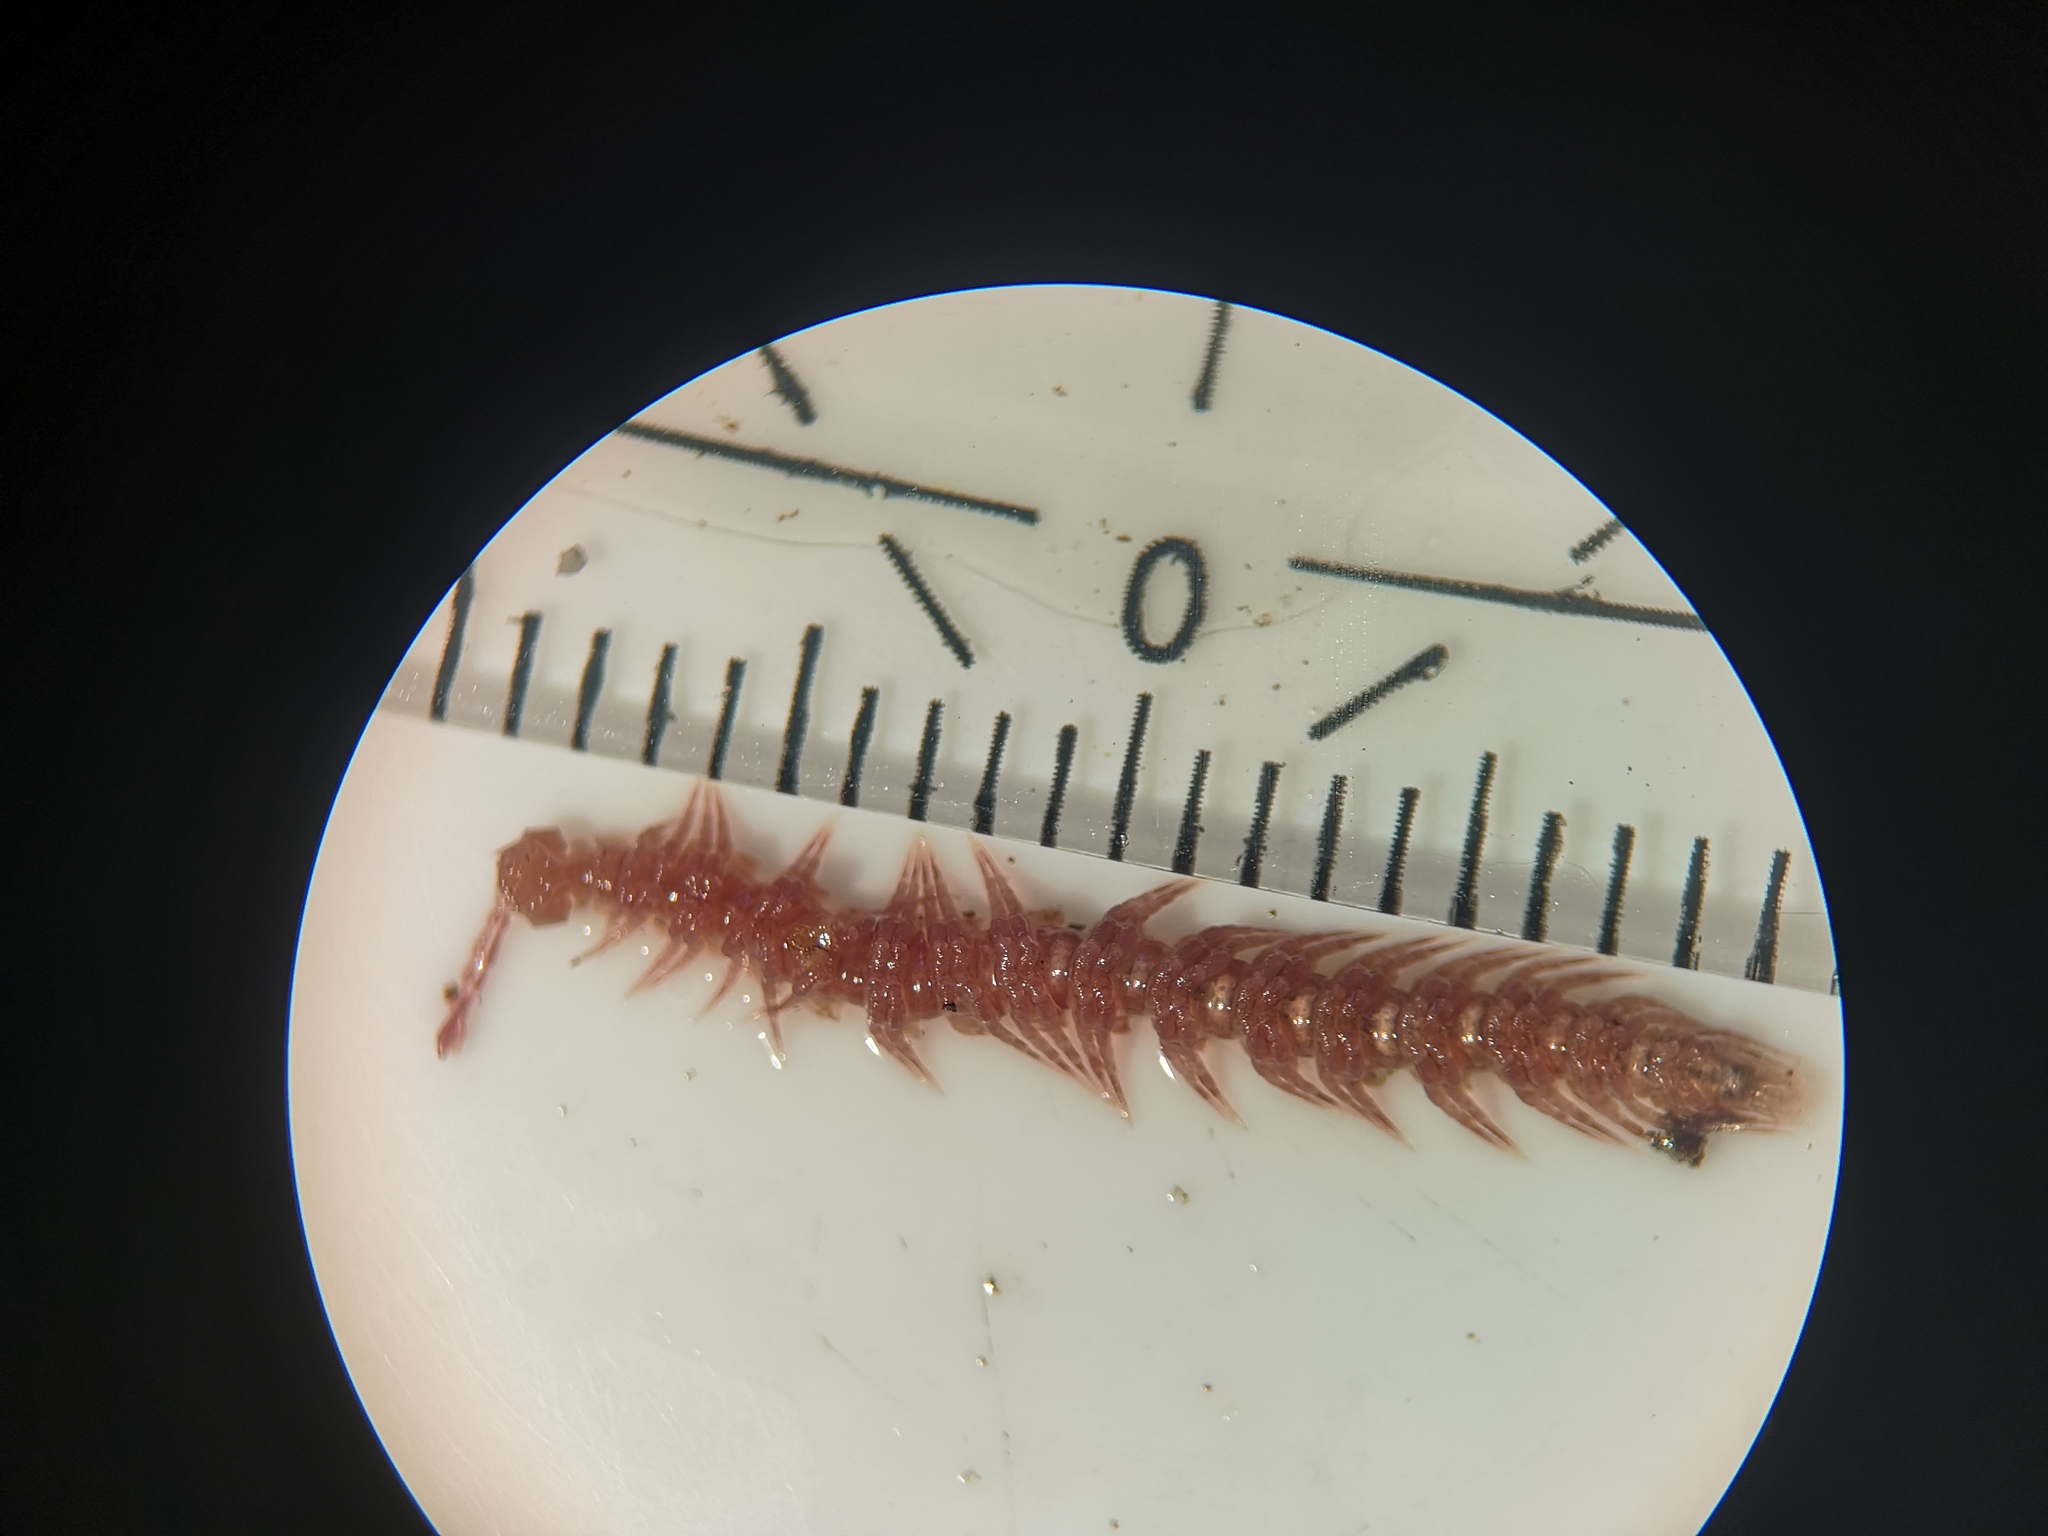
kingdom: Animalia
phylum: Arthropoda
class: Diplopoda
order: Polydesmida
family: Polydesmidae
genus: Polydesmus
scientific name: Polydesmus denticulatus
